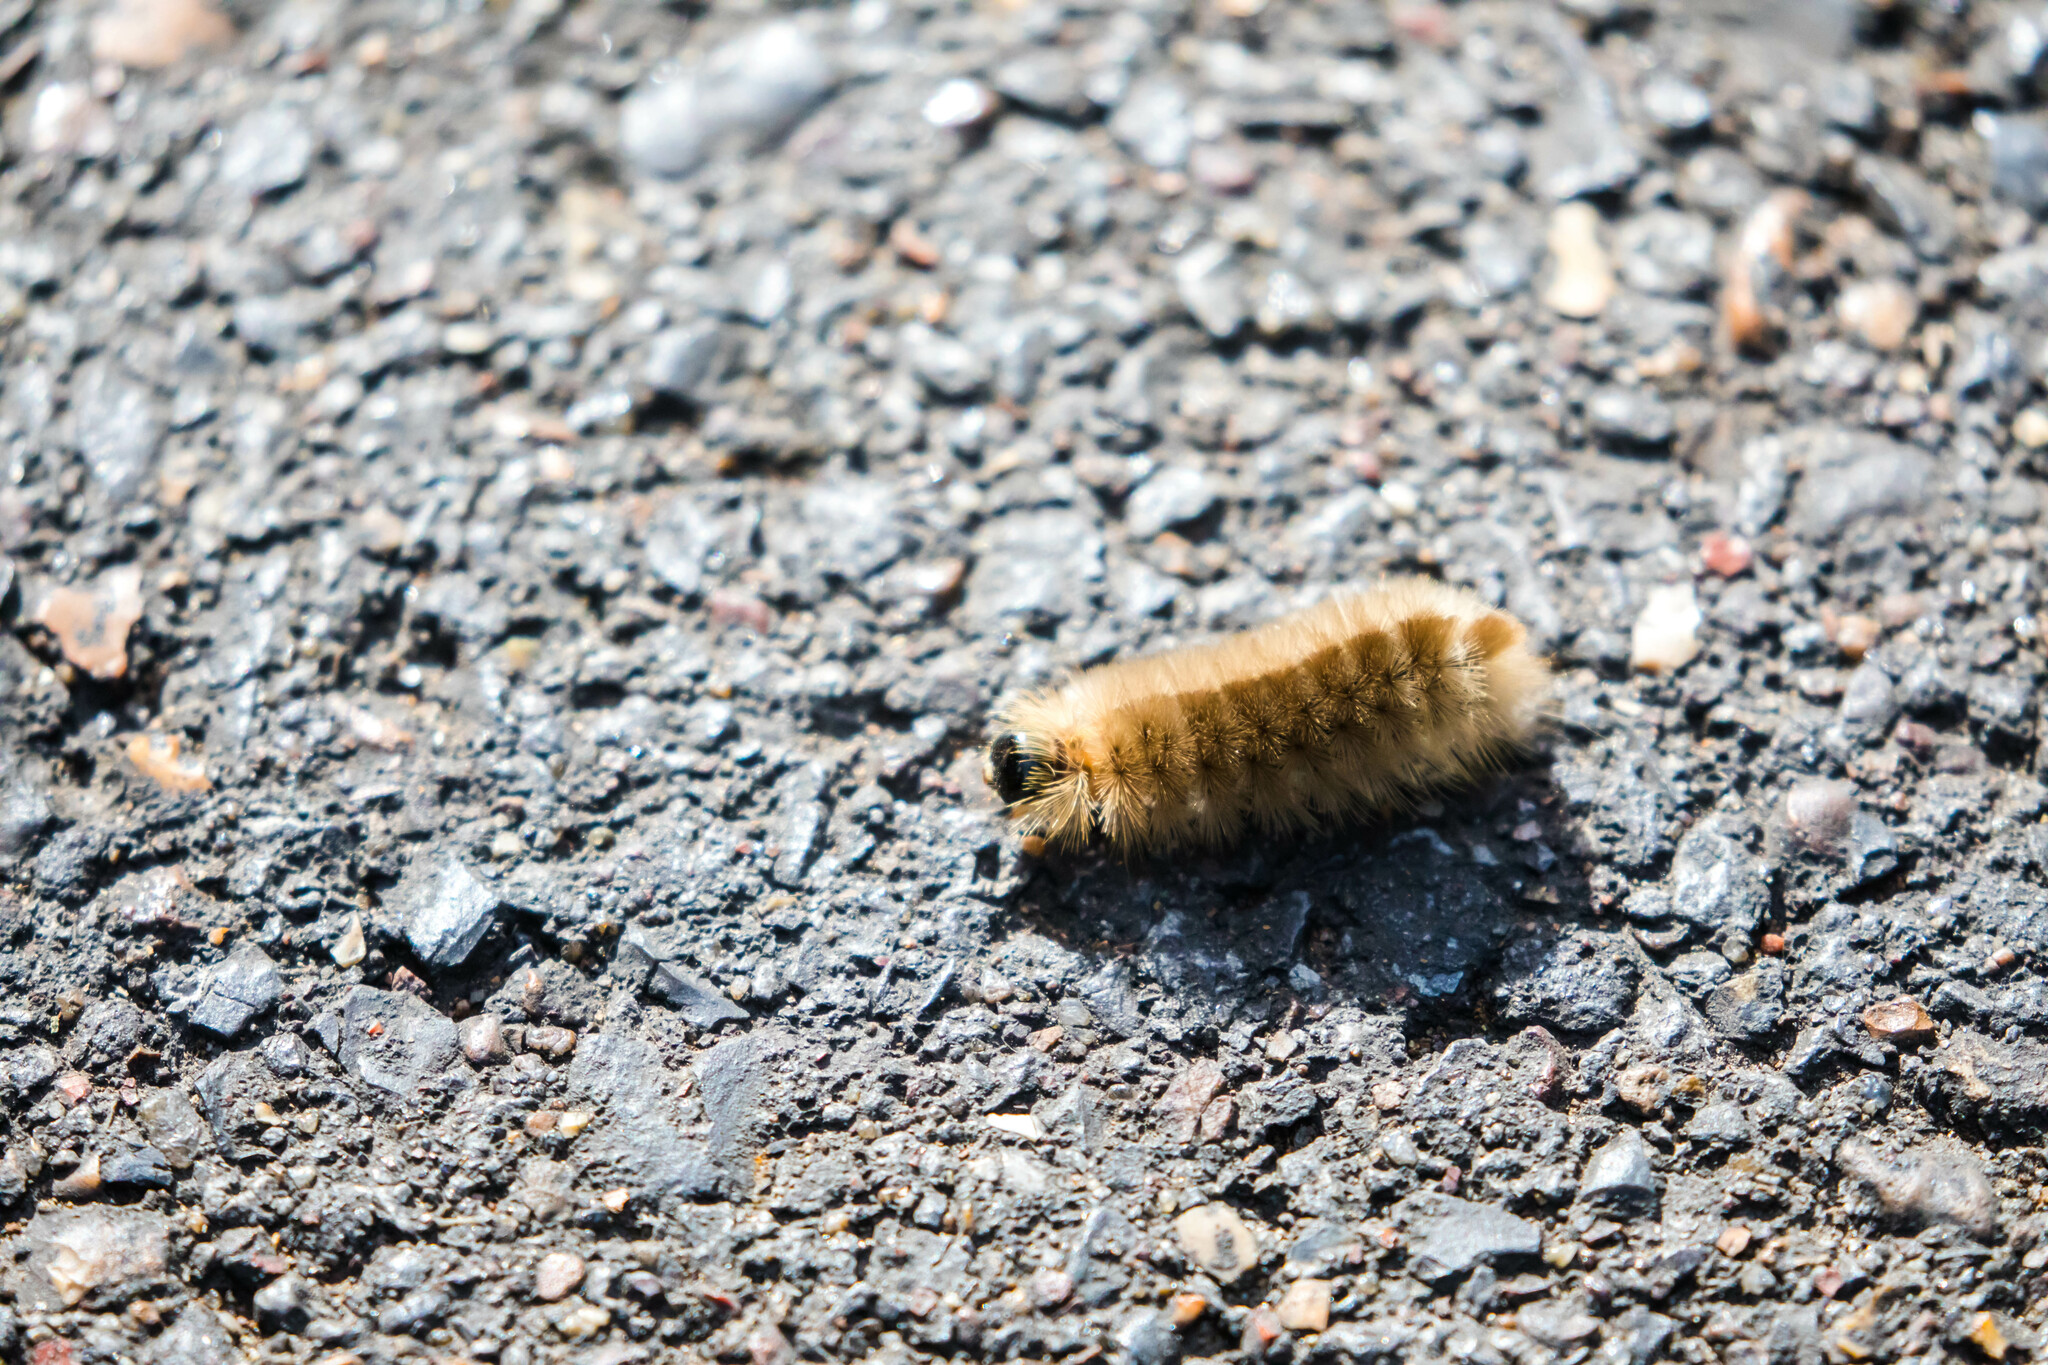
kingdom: Animalia
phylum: Arthropoda
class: Insecta
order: Lepidoptera
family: Erebidae
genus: Halysidota
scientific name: Halysidota tessellaris
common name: Banded tussock moth
